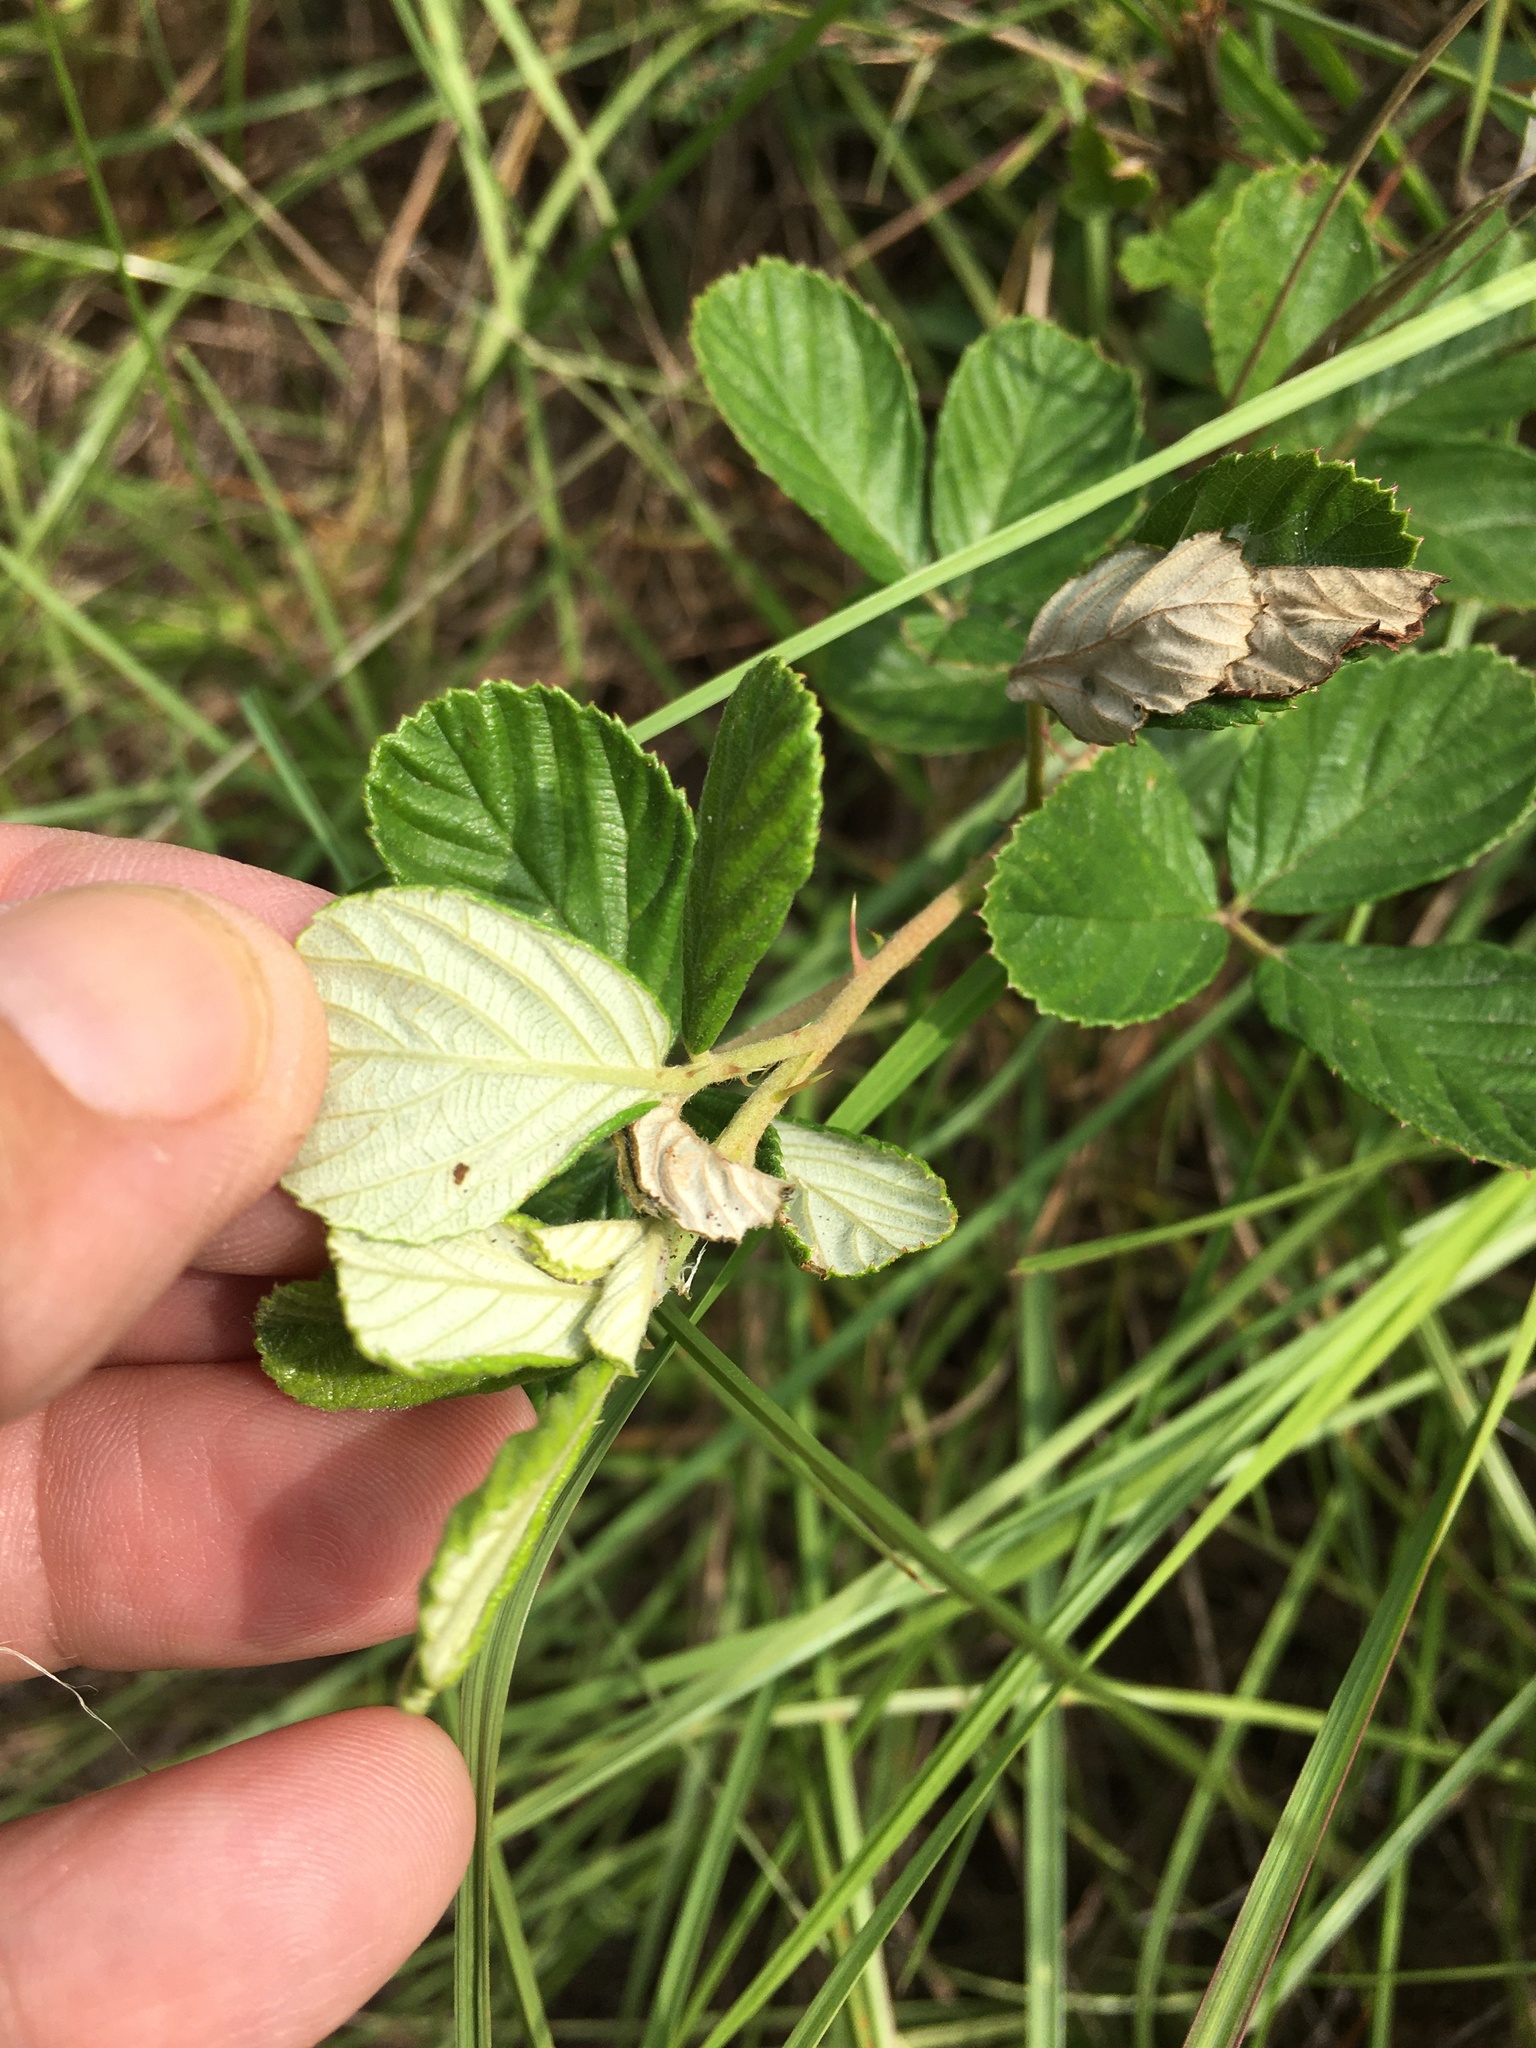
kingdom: Plantae
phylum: Tracheophyta
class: Magnoliopsida
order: Rosales
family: Rosaceae
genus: Rubus
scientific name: Rubus cuneifolius
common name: American bramble
